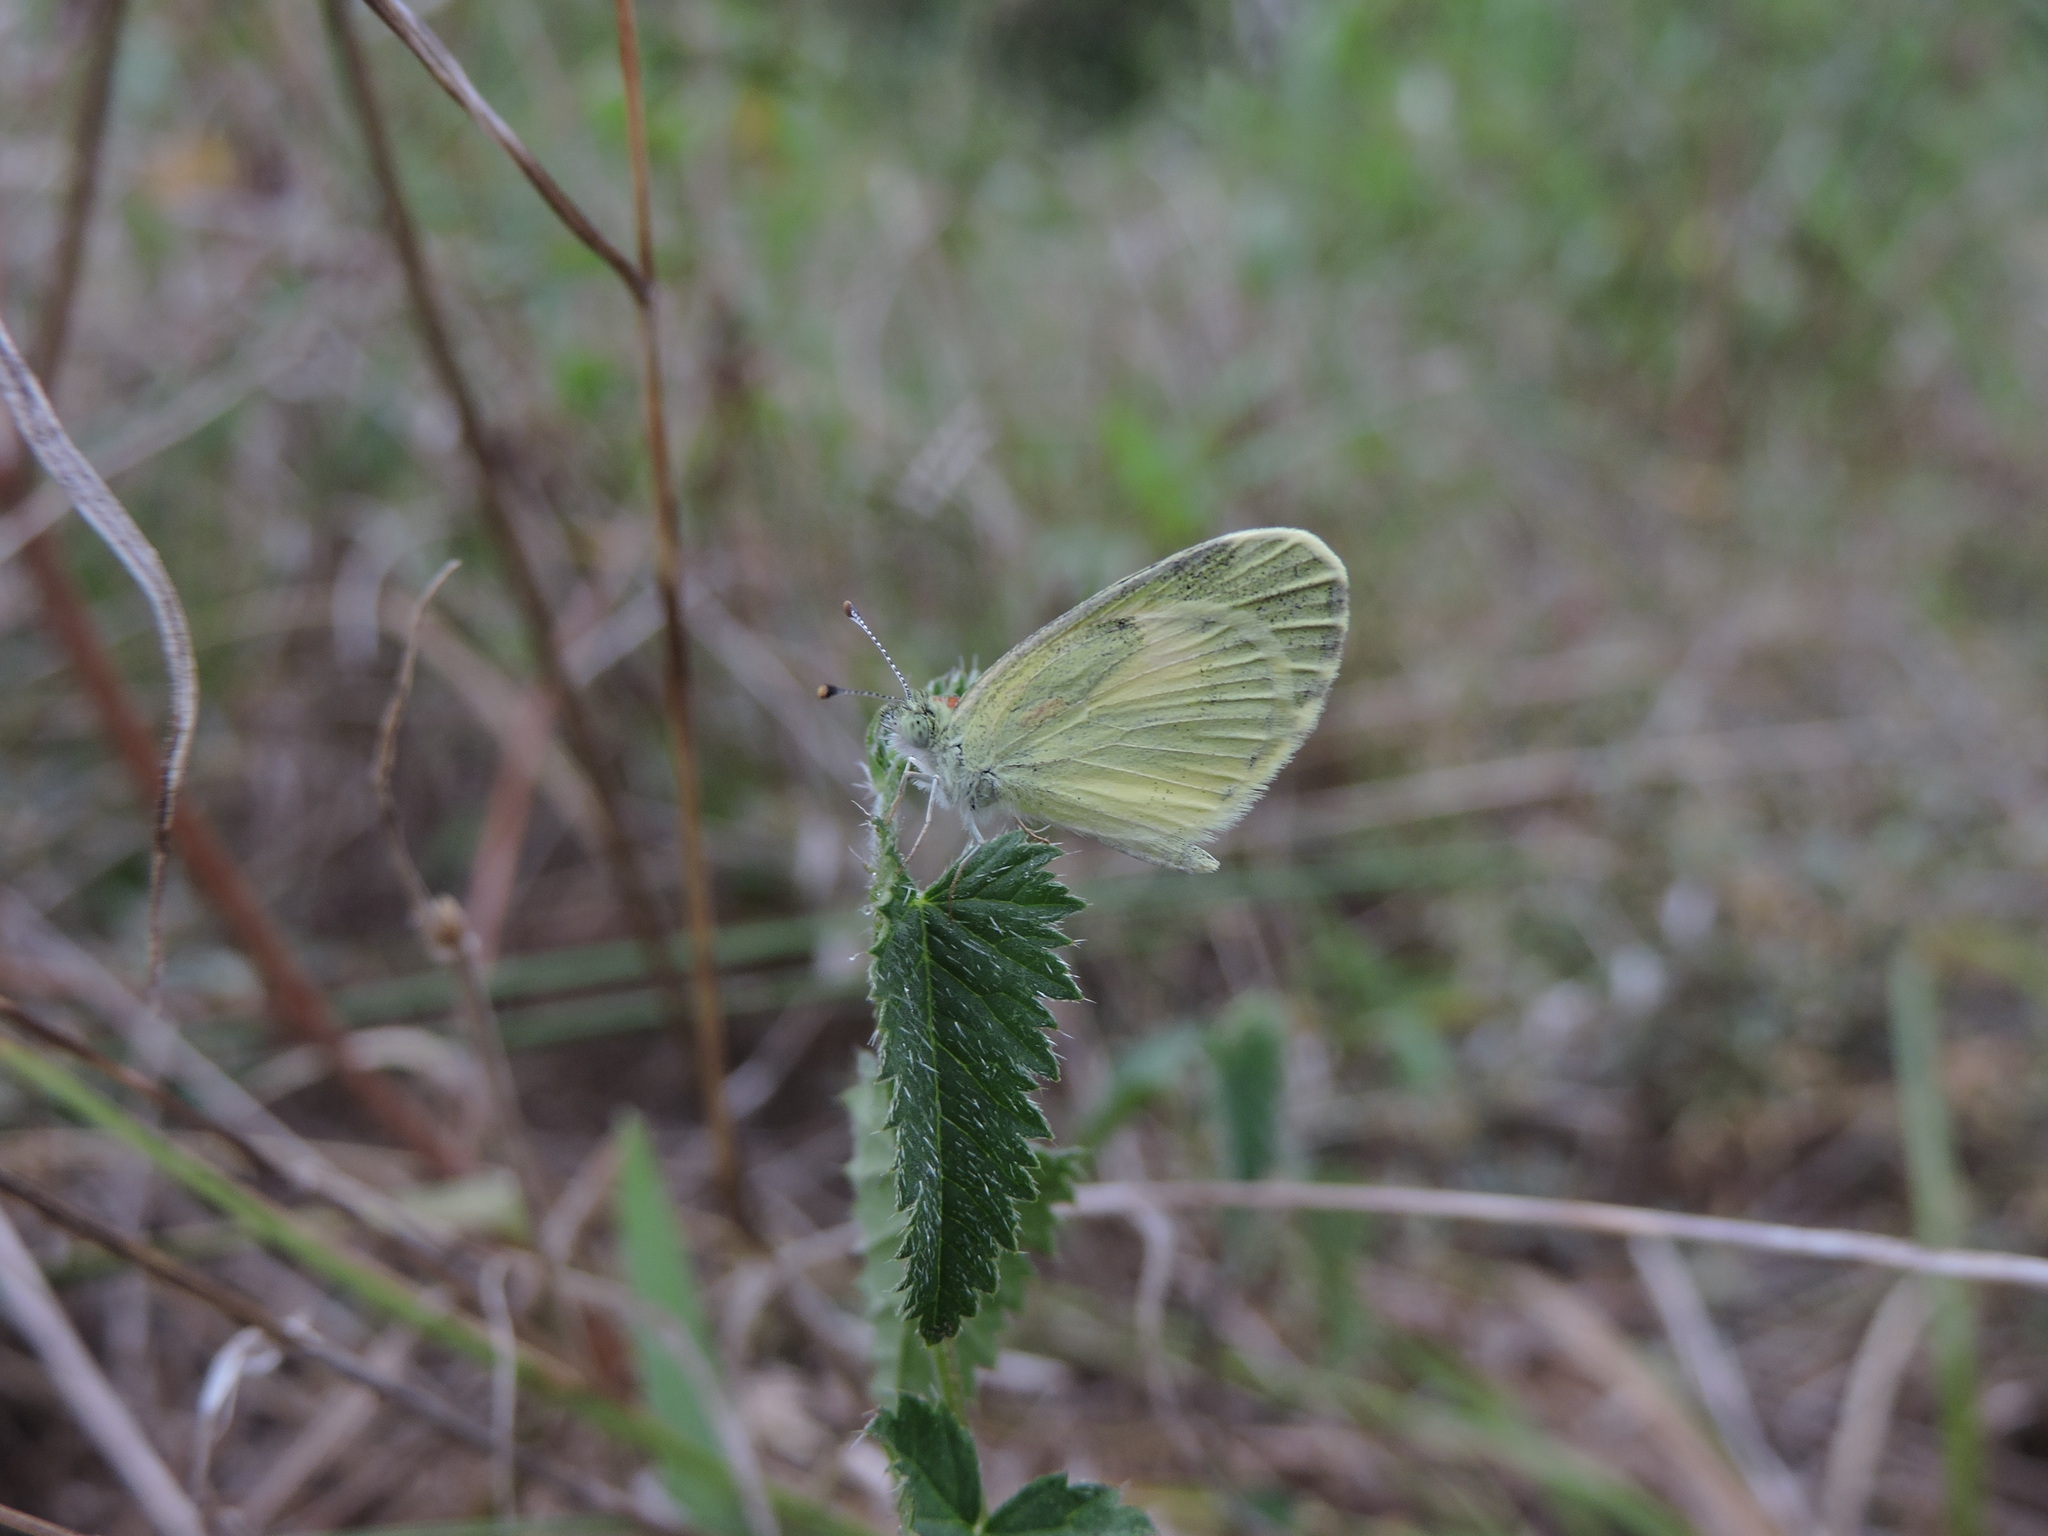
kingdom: Animalia
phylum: Arthropoda
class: Insecta
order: Lepidoptera
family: Pieridae
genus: Nathalis
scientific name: Nathalis iole
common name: Dainty sulphur
